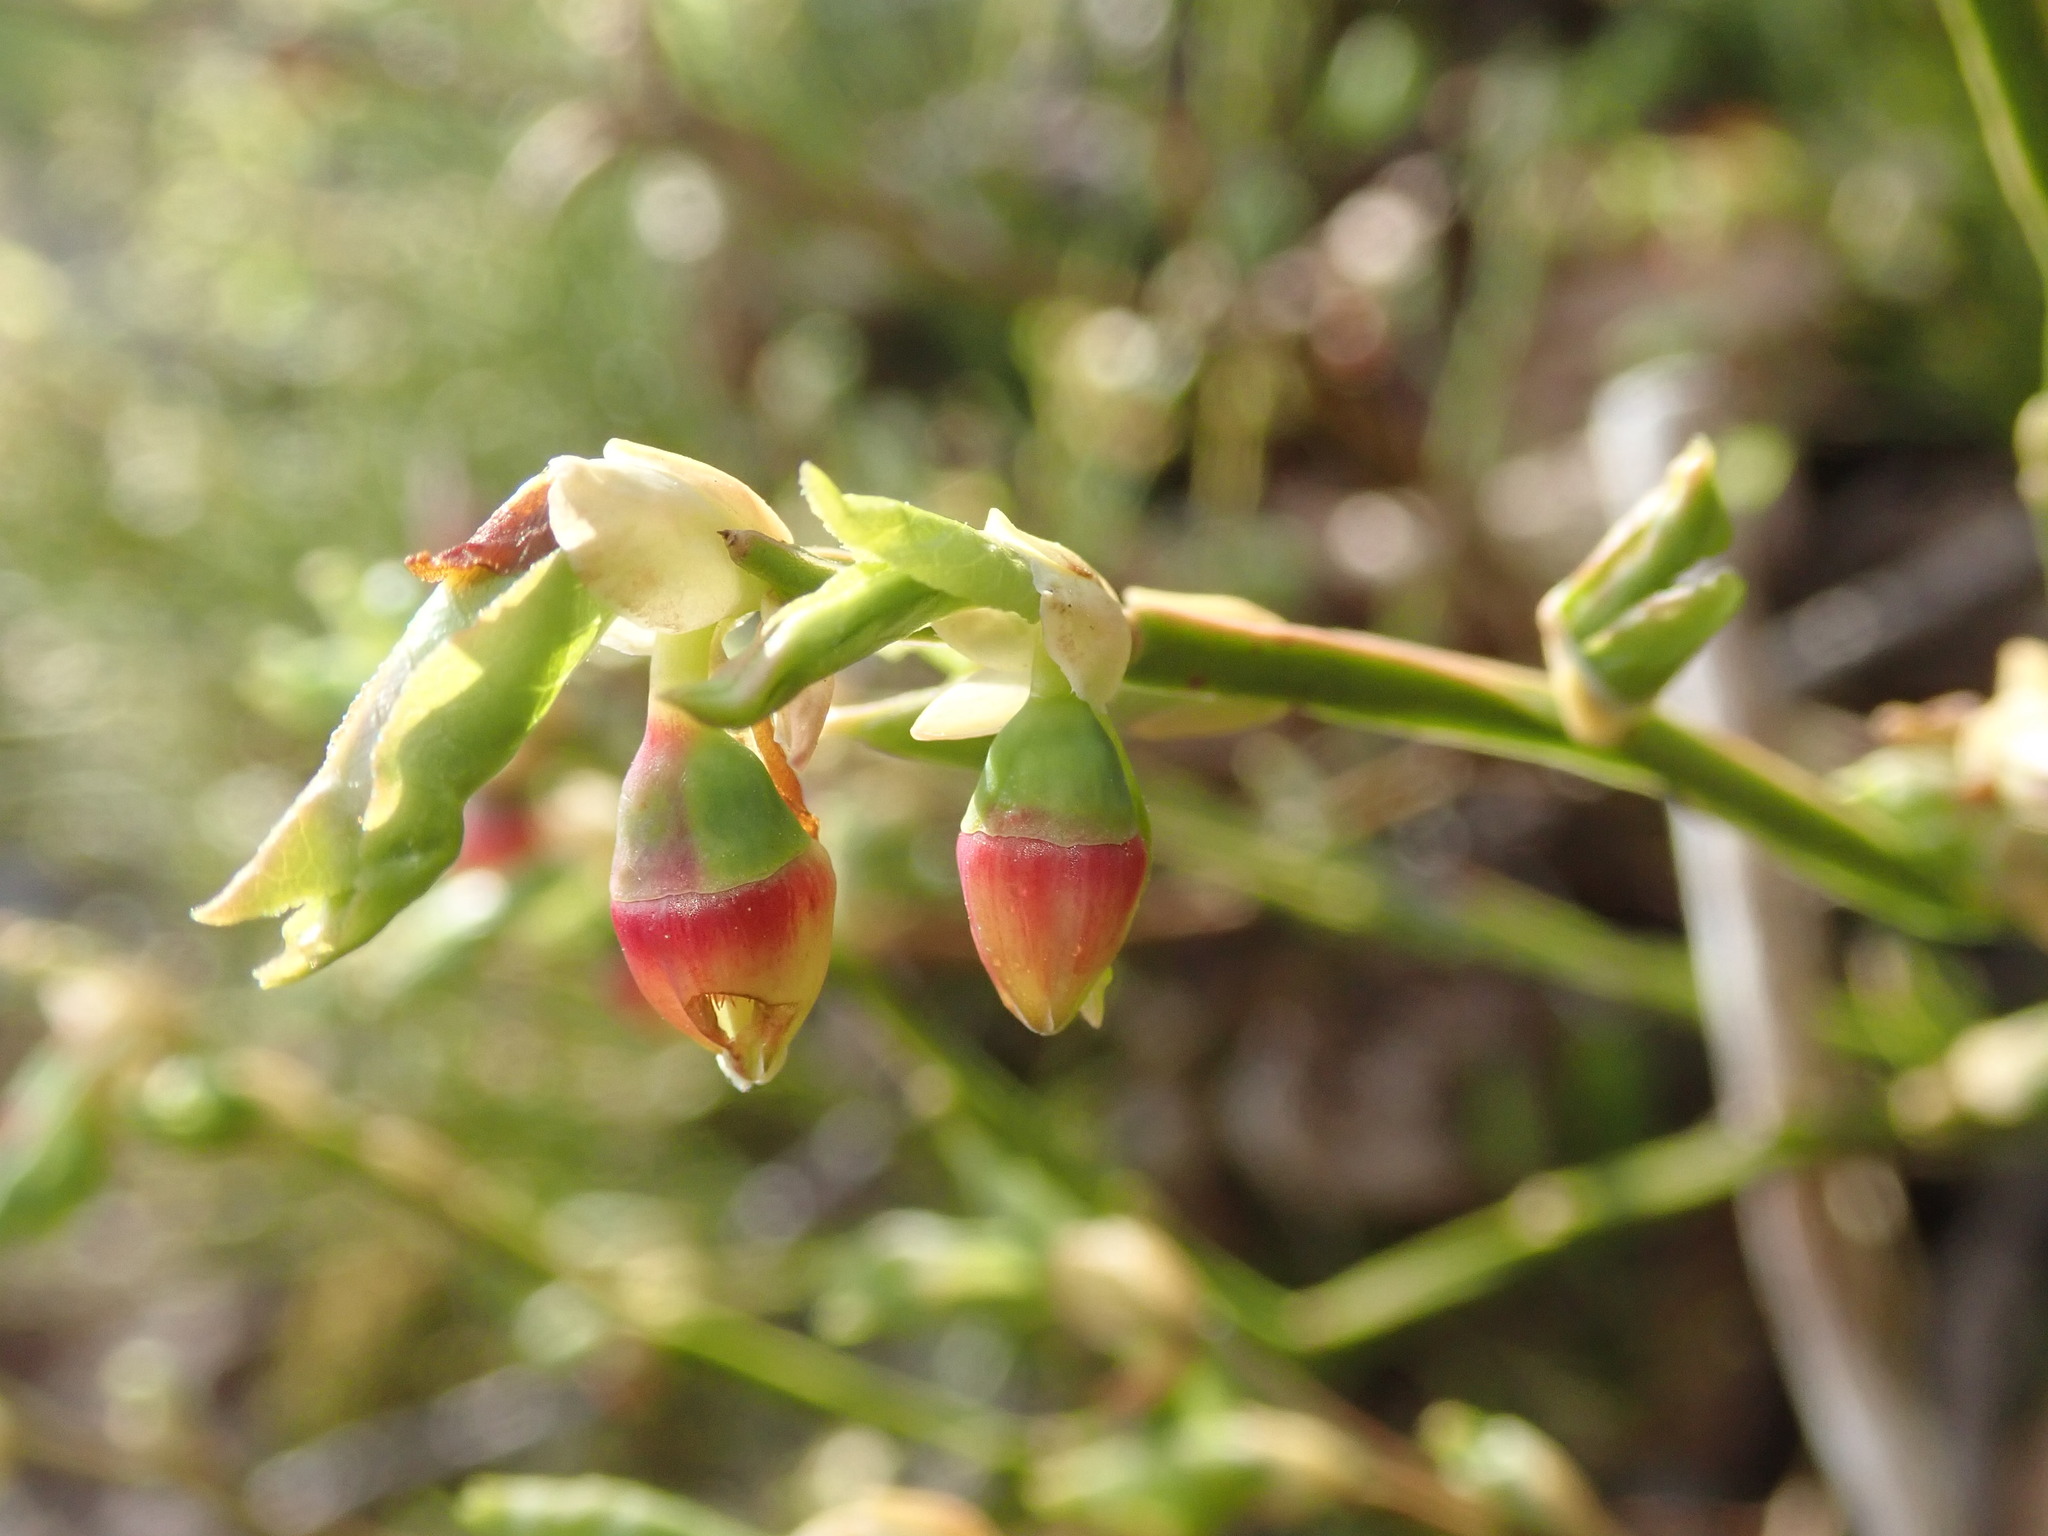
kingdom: Plantae
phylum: Tracheophyta
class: Magnoliopsida
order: Ericales
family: Ericaceae
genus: Vaccinium
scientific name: Vaccinium myrtillus
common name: Bilberry
